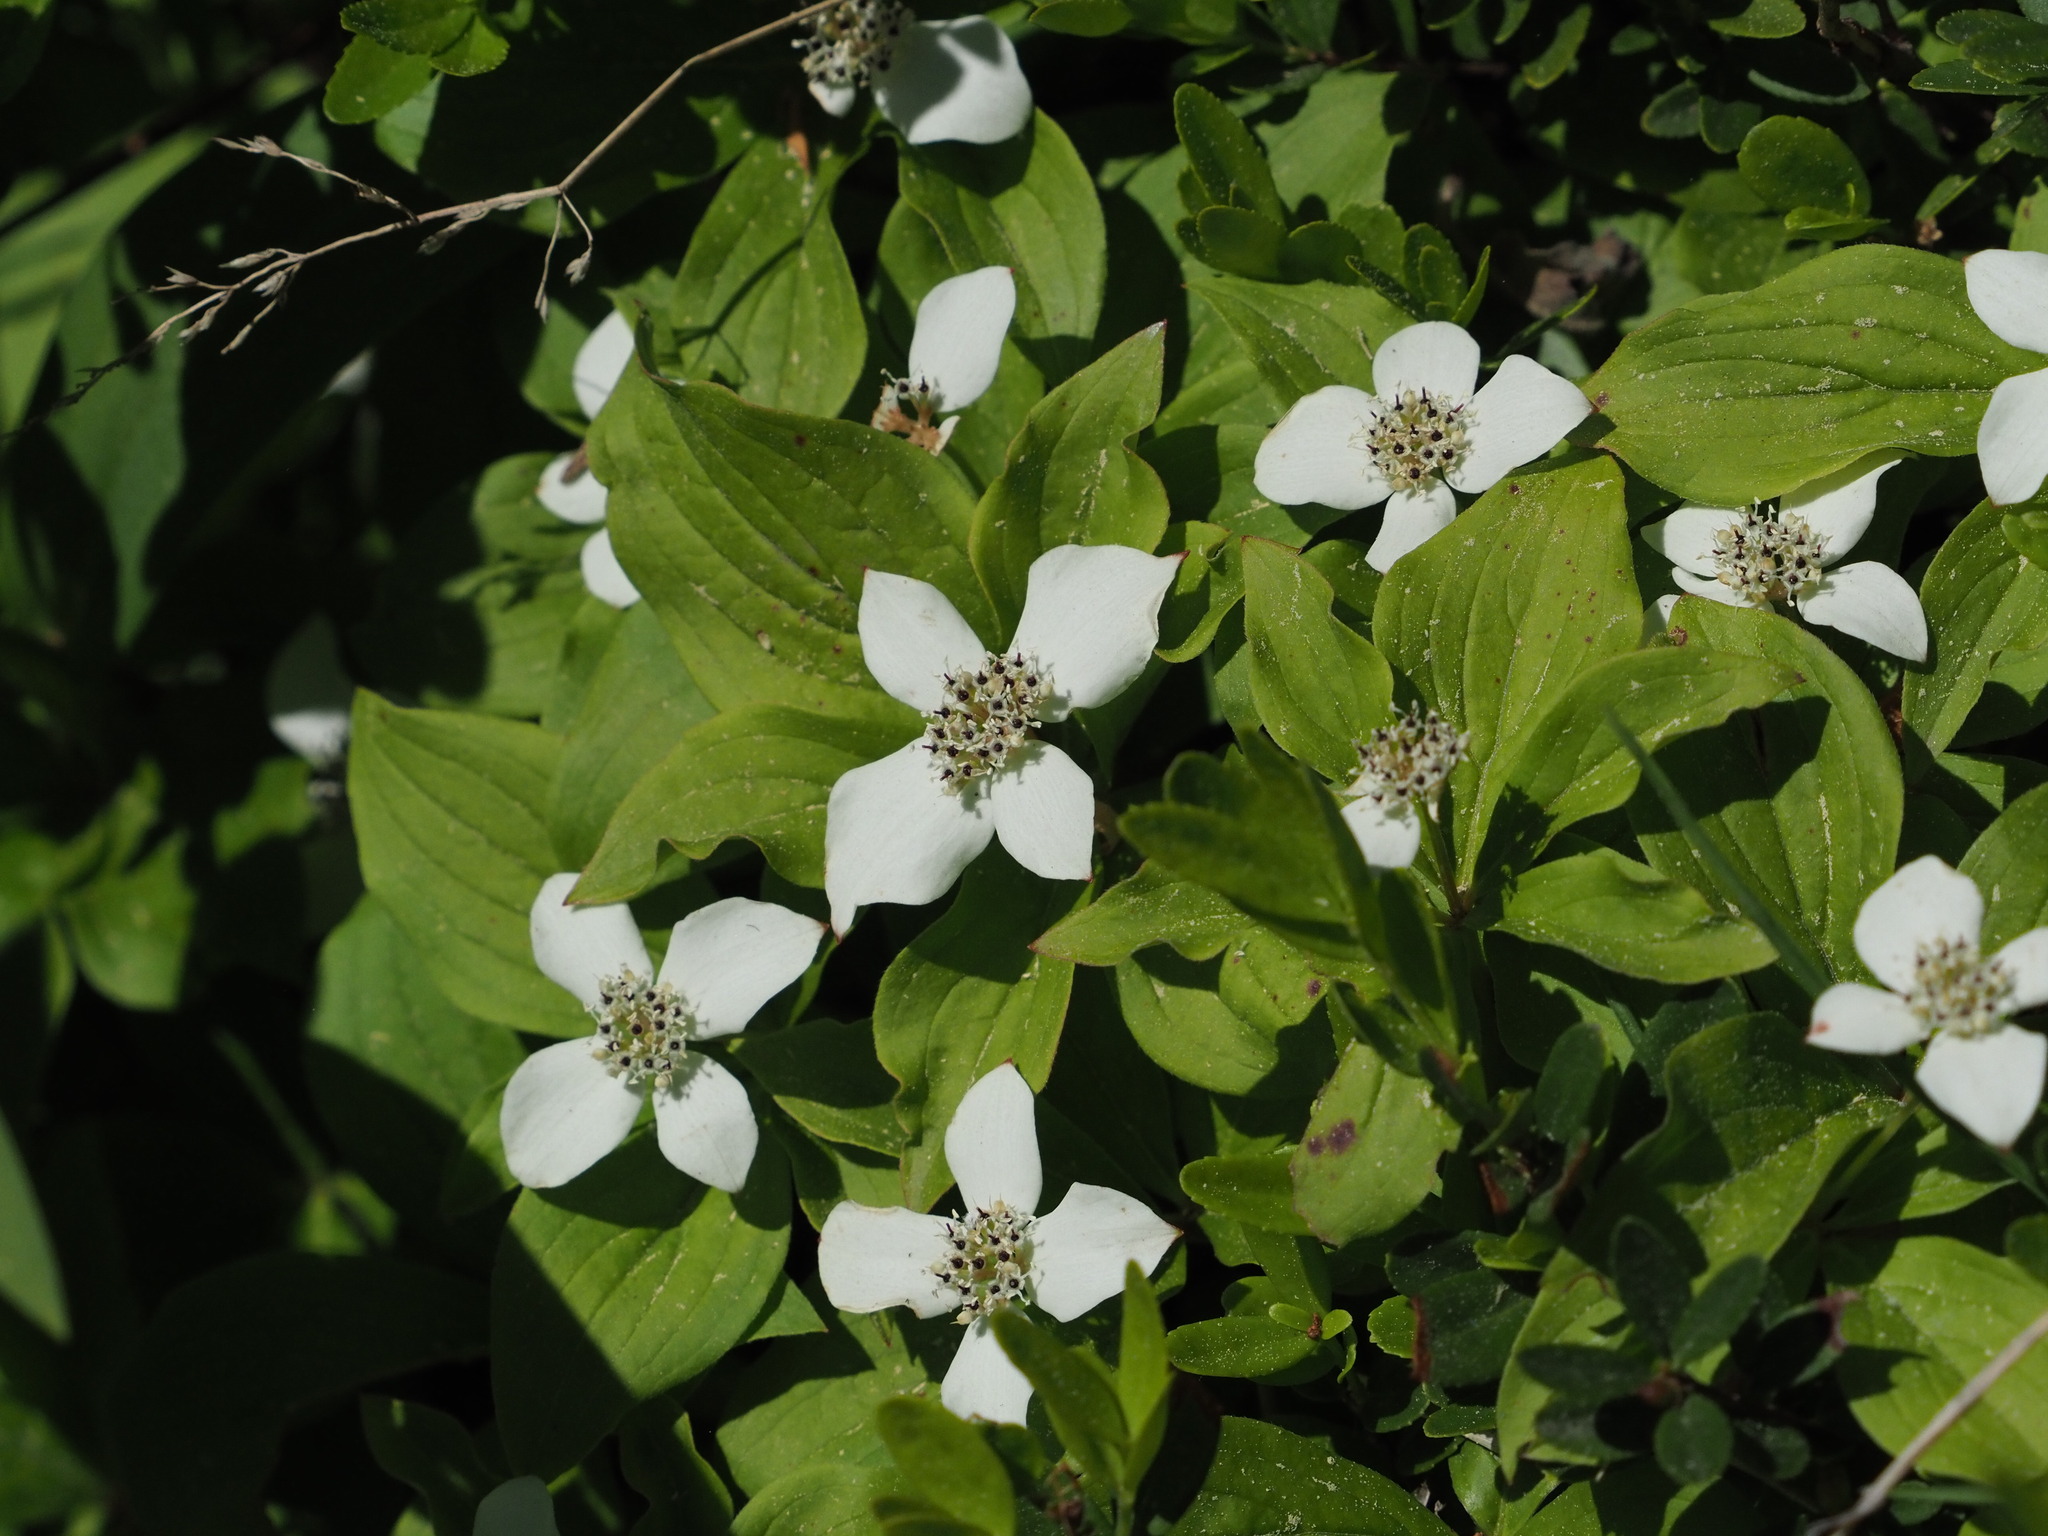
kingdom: Plantae
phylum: Tracheophyta
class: Magnoliopsida
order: Cornales
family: Cornaceae
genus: Cornus
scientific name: Cornus canadensis
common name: Creeping dogwood
